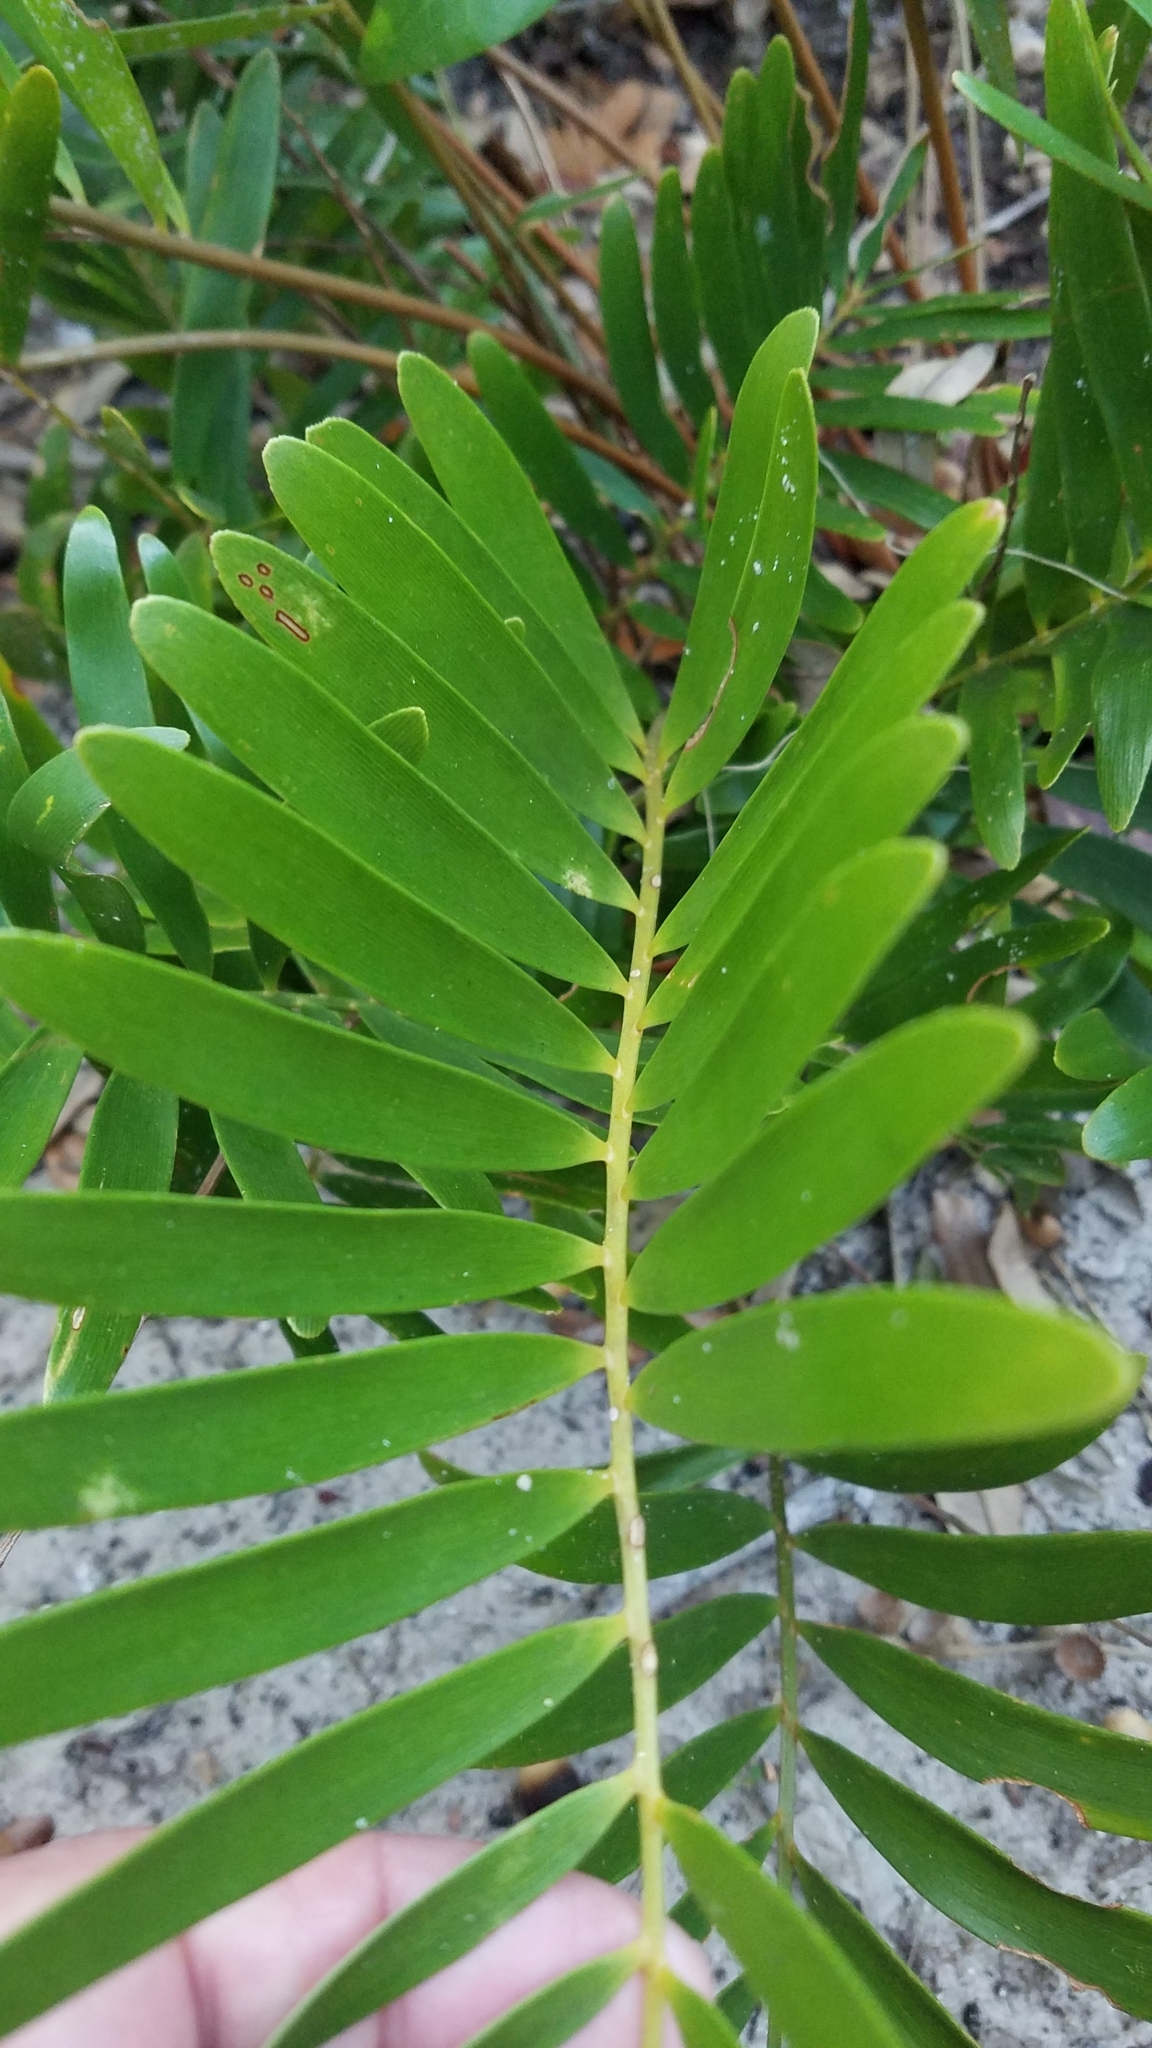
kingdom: Plantae
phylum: Tracheophyta
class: Cycadopsida
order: Cycadales
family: Zamiaceae
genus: Zamia
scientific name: Zamia integrifolia
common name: Florida arrowroot
